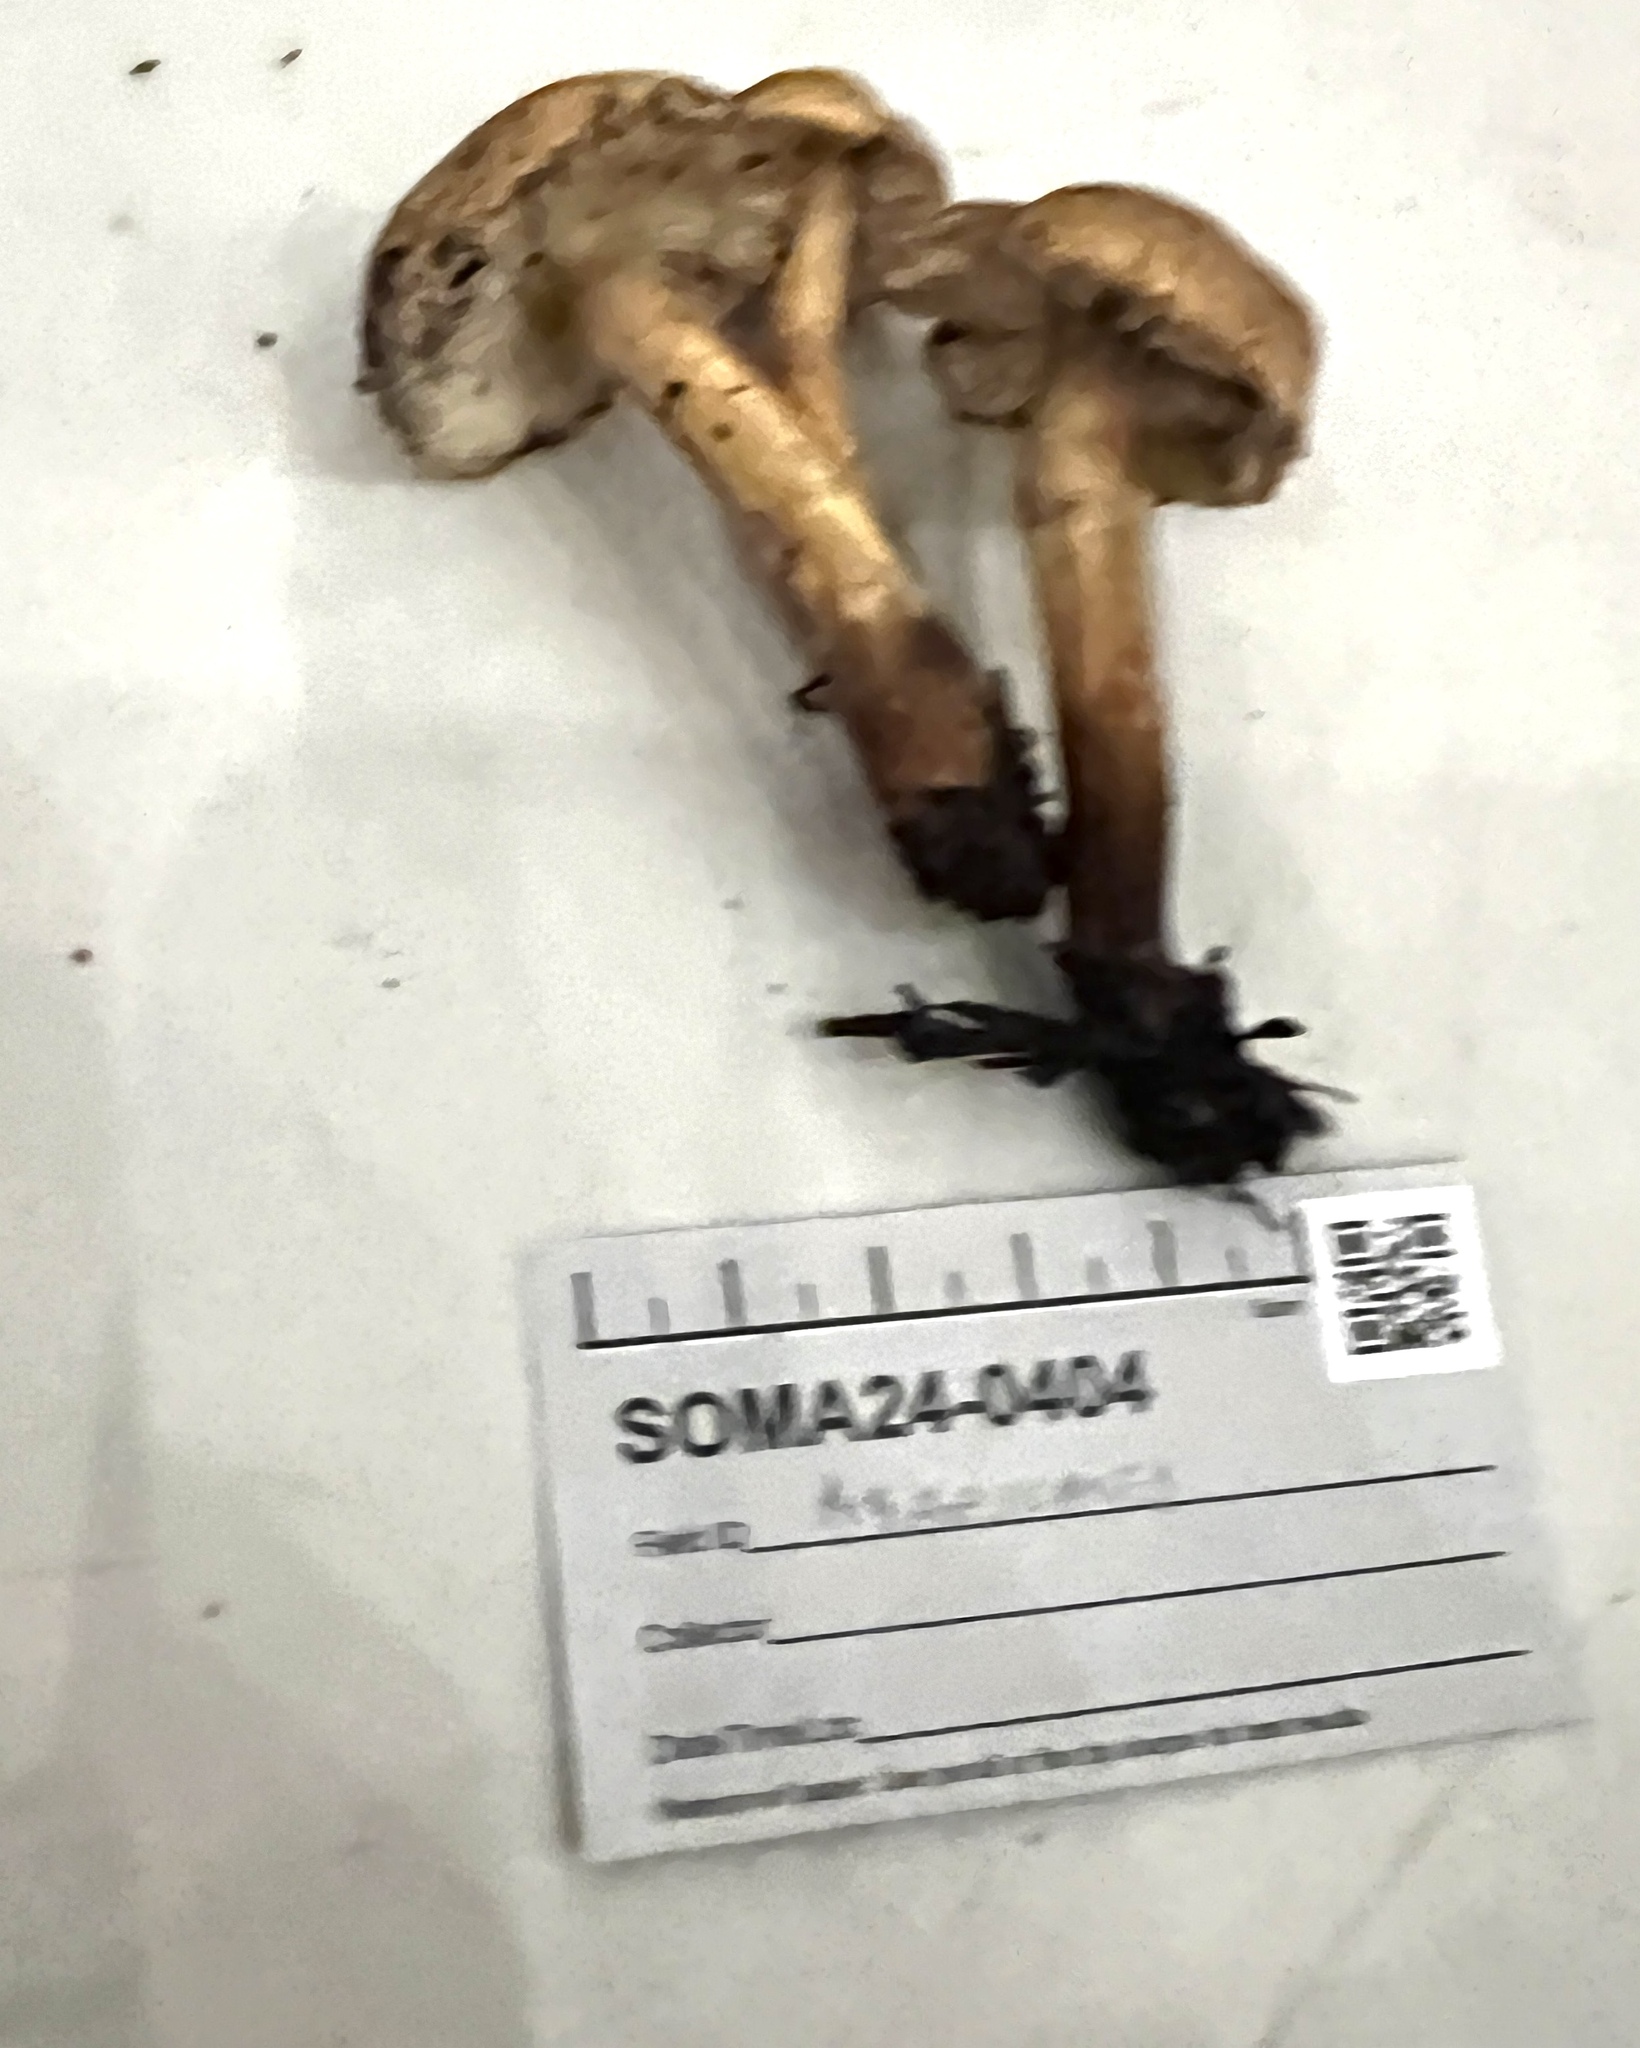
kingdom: Fungi
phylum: Basidiomycota
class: Agaricomycetes
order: Agaricales
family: Tricholomataceae
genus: Tricholoma
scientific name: Tricholoma aurantio-olivaceum
